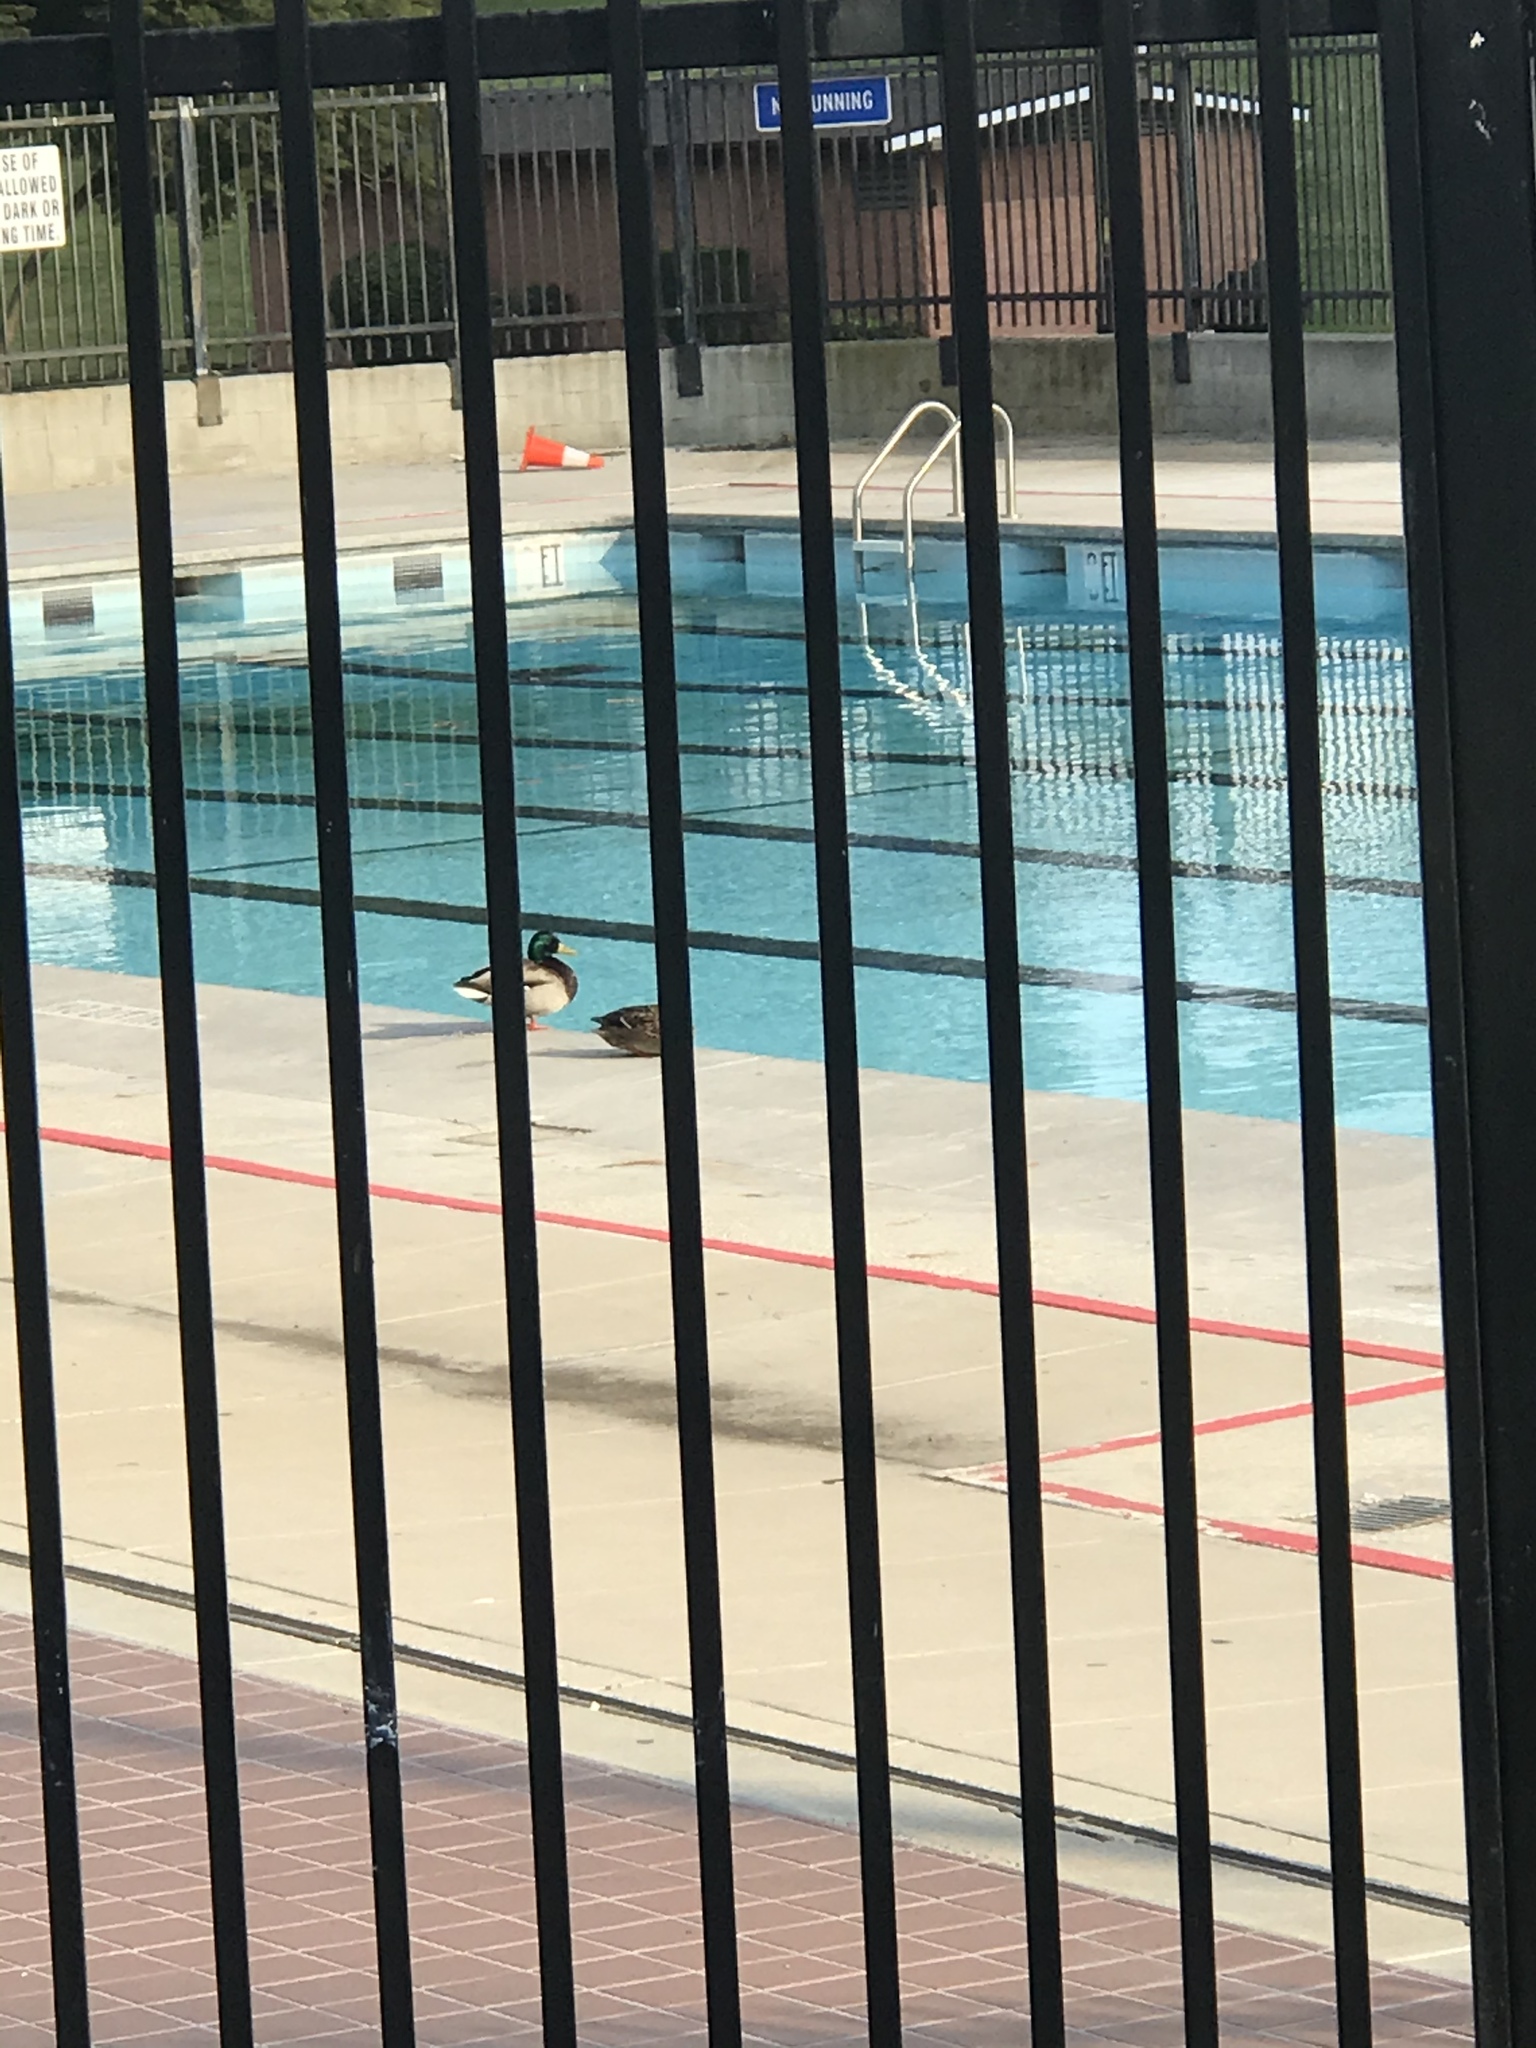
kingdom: Animalia
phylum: Chordata
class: Aves
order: Anseriformes
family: Anatidae
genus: Anas
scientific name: Anas platyrhynchos
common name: Mallard
